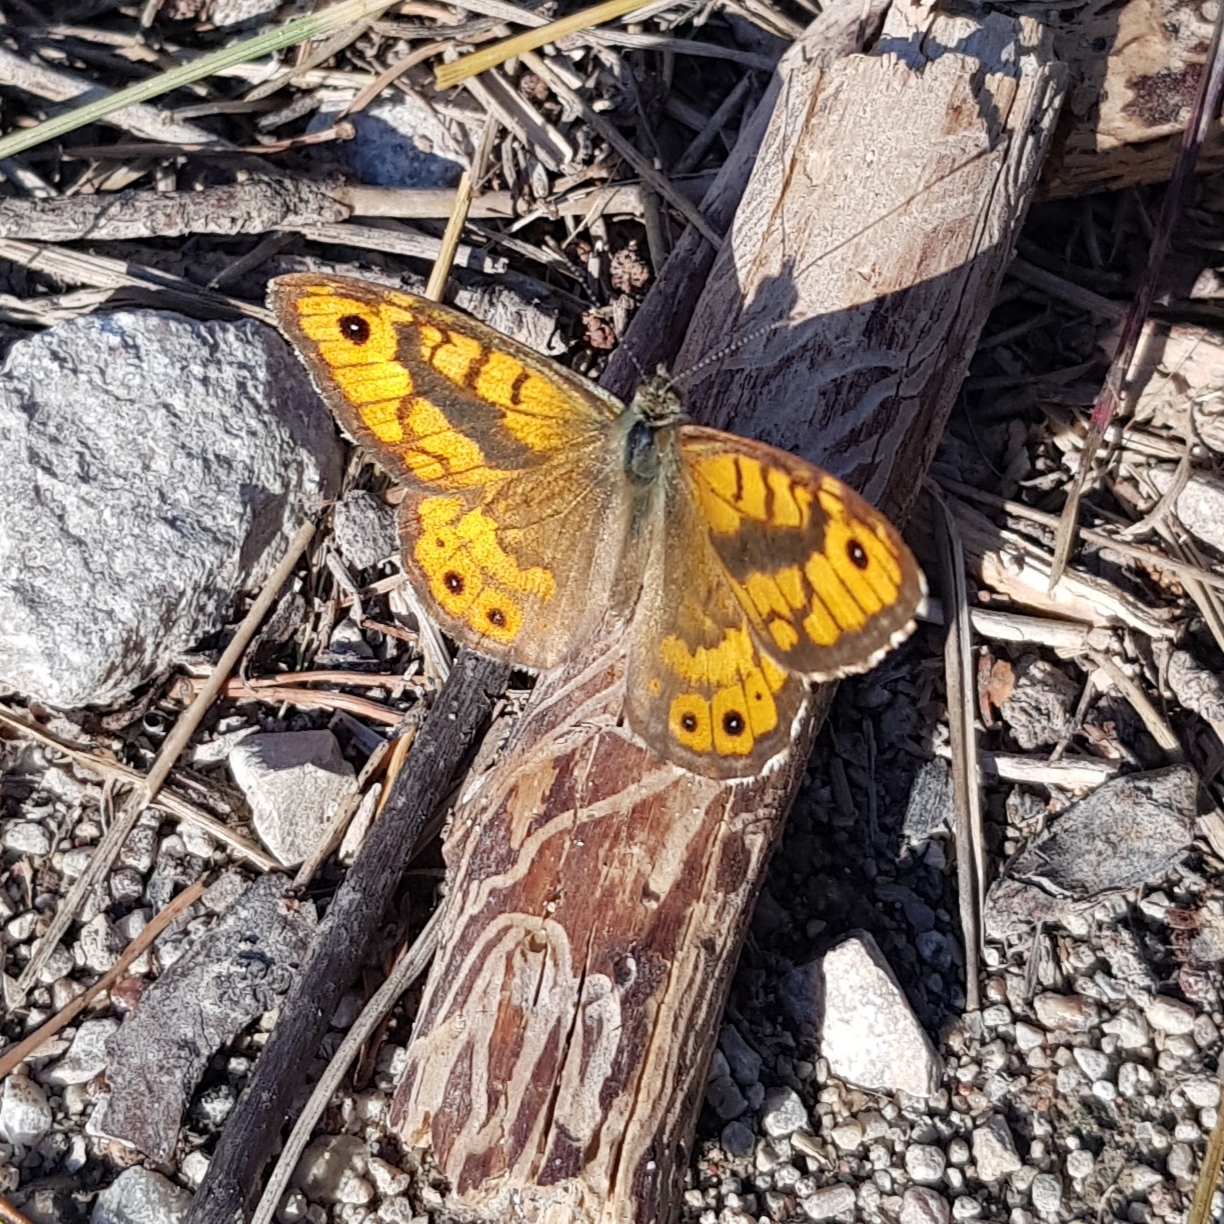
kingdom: Animalia
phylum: Arthropoda
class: Insecta
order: Lepidoptera
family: Nymphalidae
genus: Pararge
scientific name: Pararge Lasiommata megera
